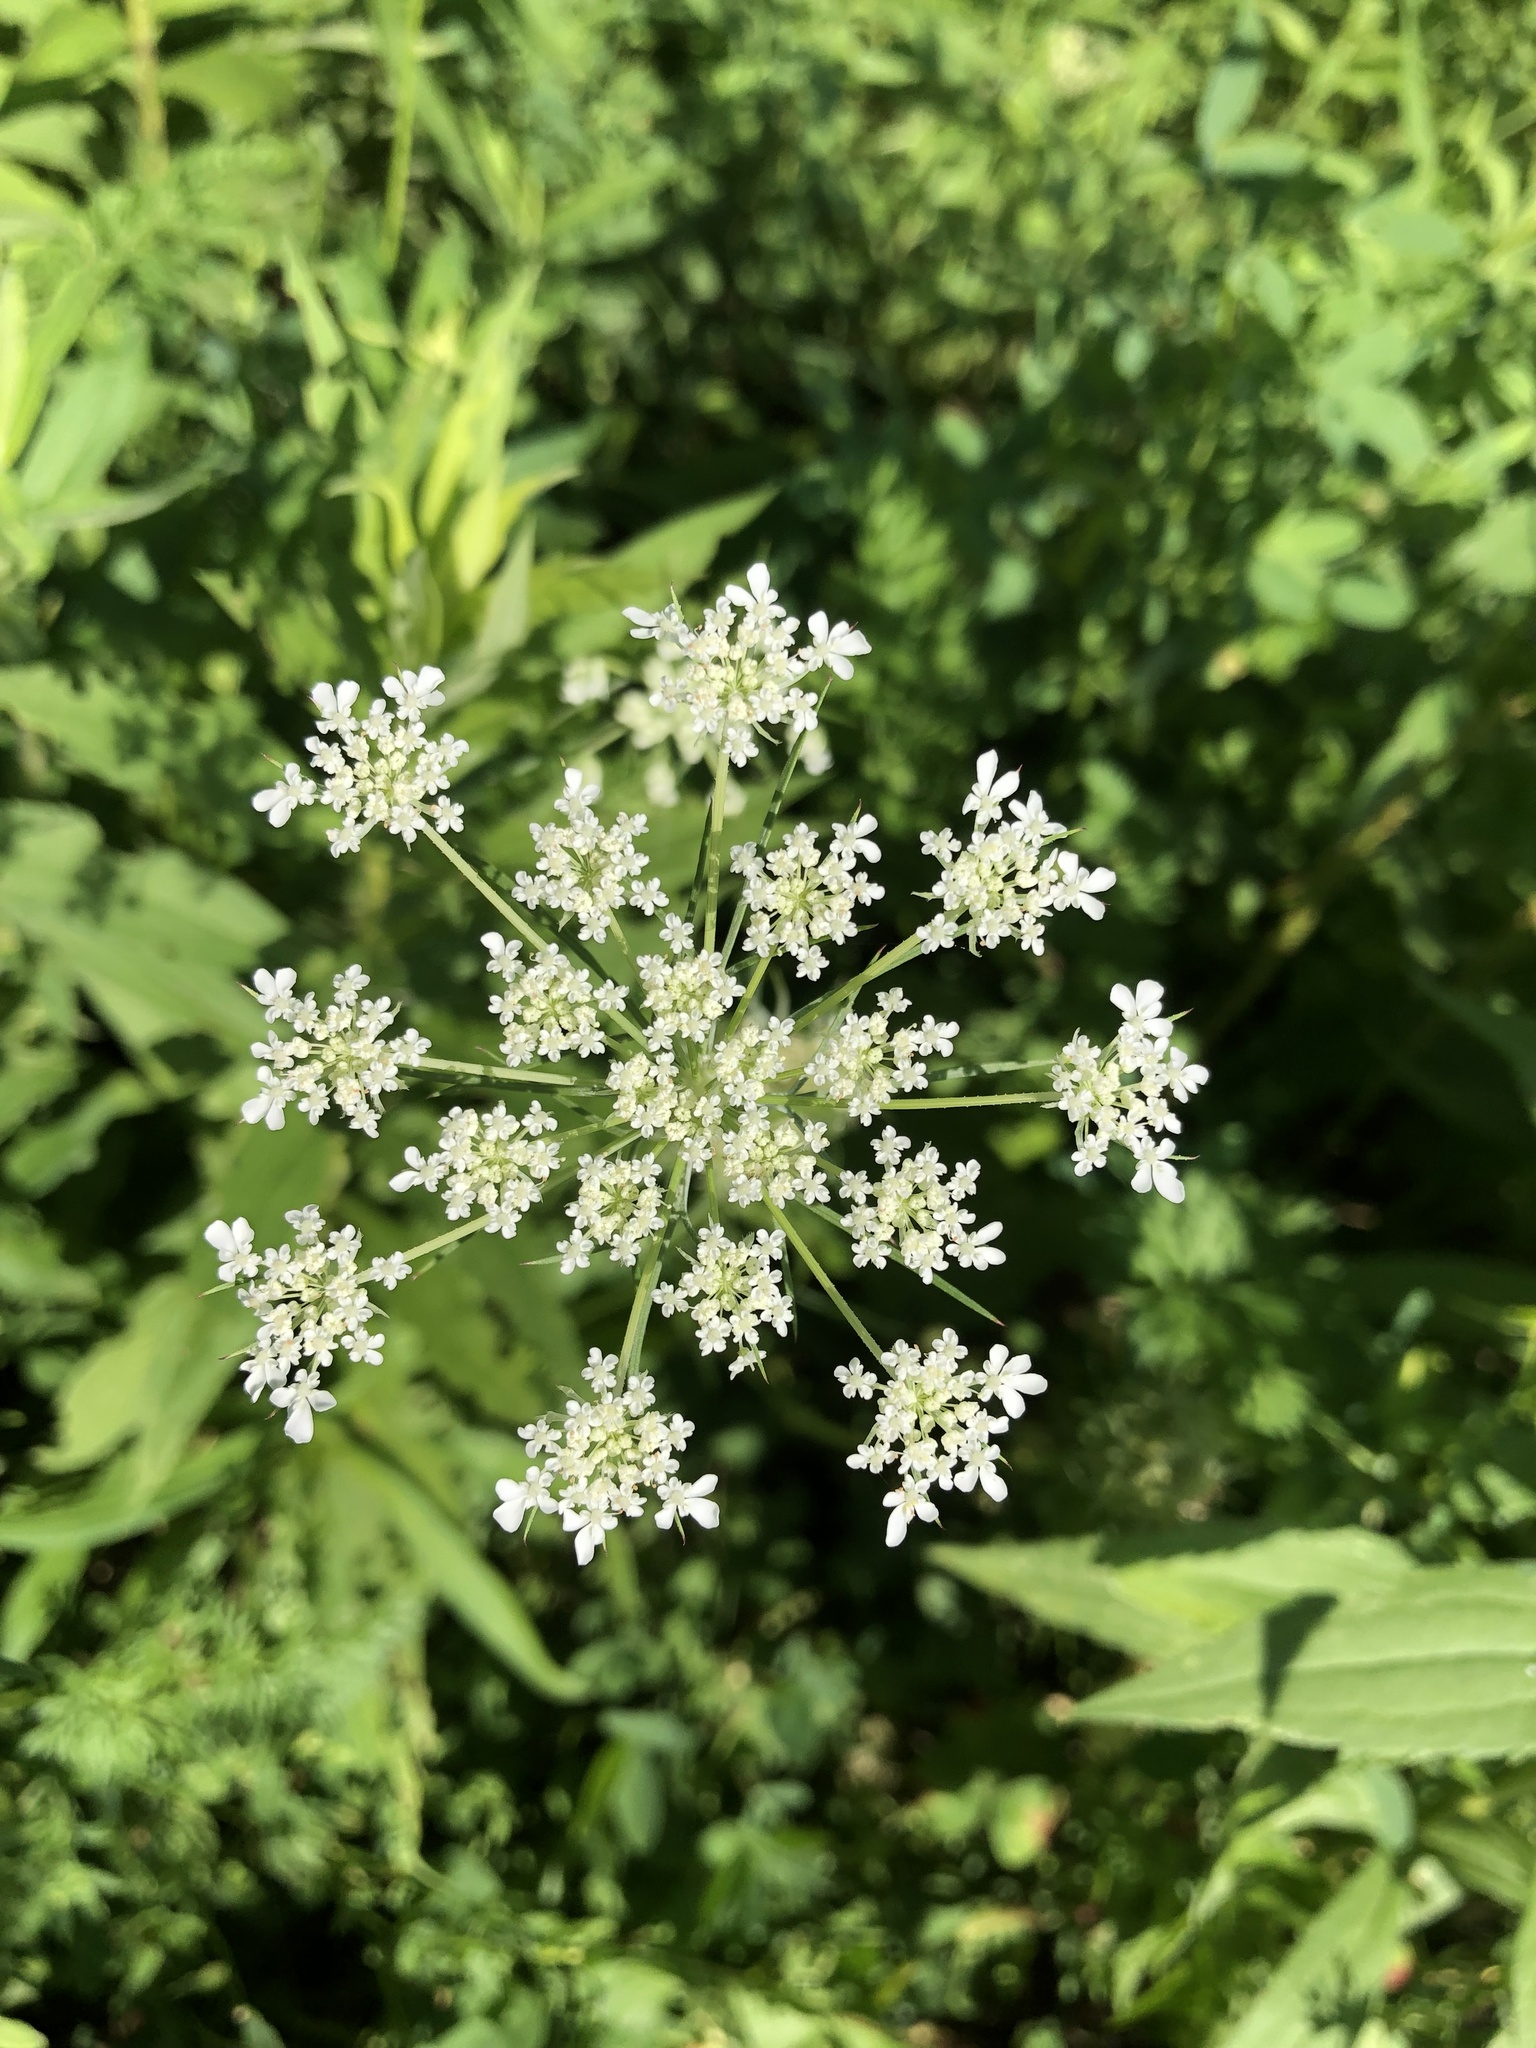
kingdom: Plantae
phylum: Tracheophyta
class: Magnoliopsida
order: Apiales
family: Apiaceae
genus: Daucus
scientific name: Daucus carota
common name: Wild carrot
